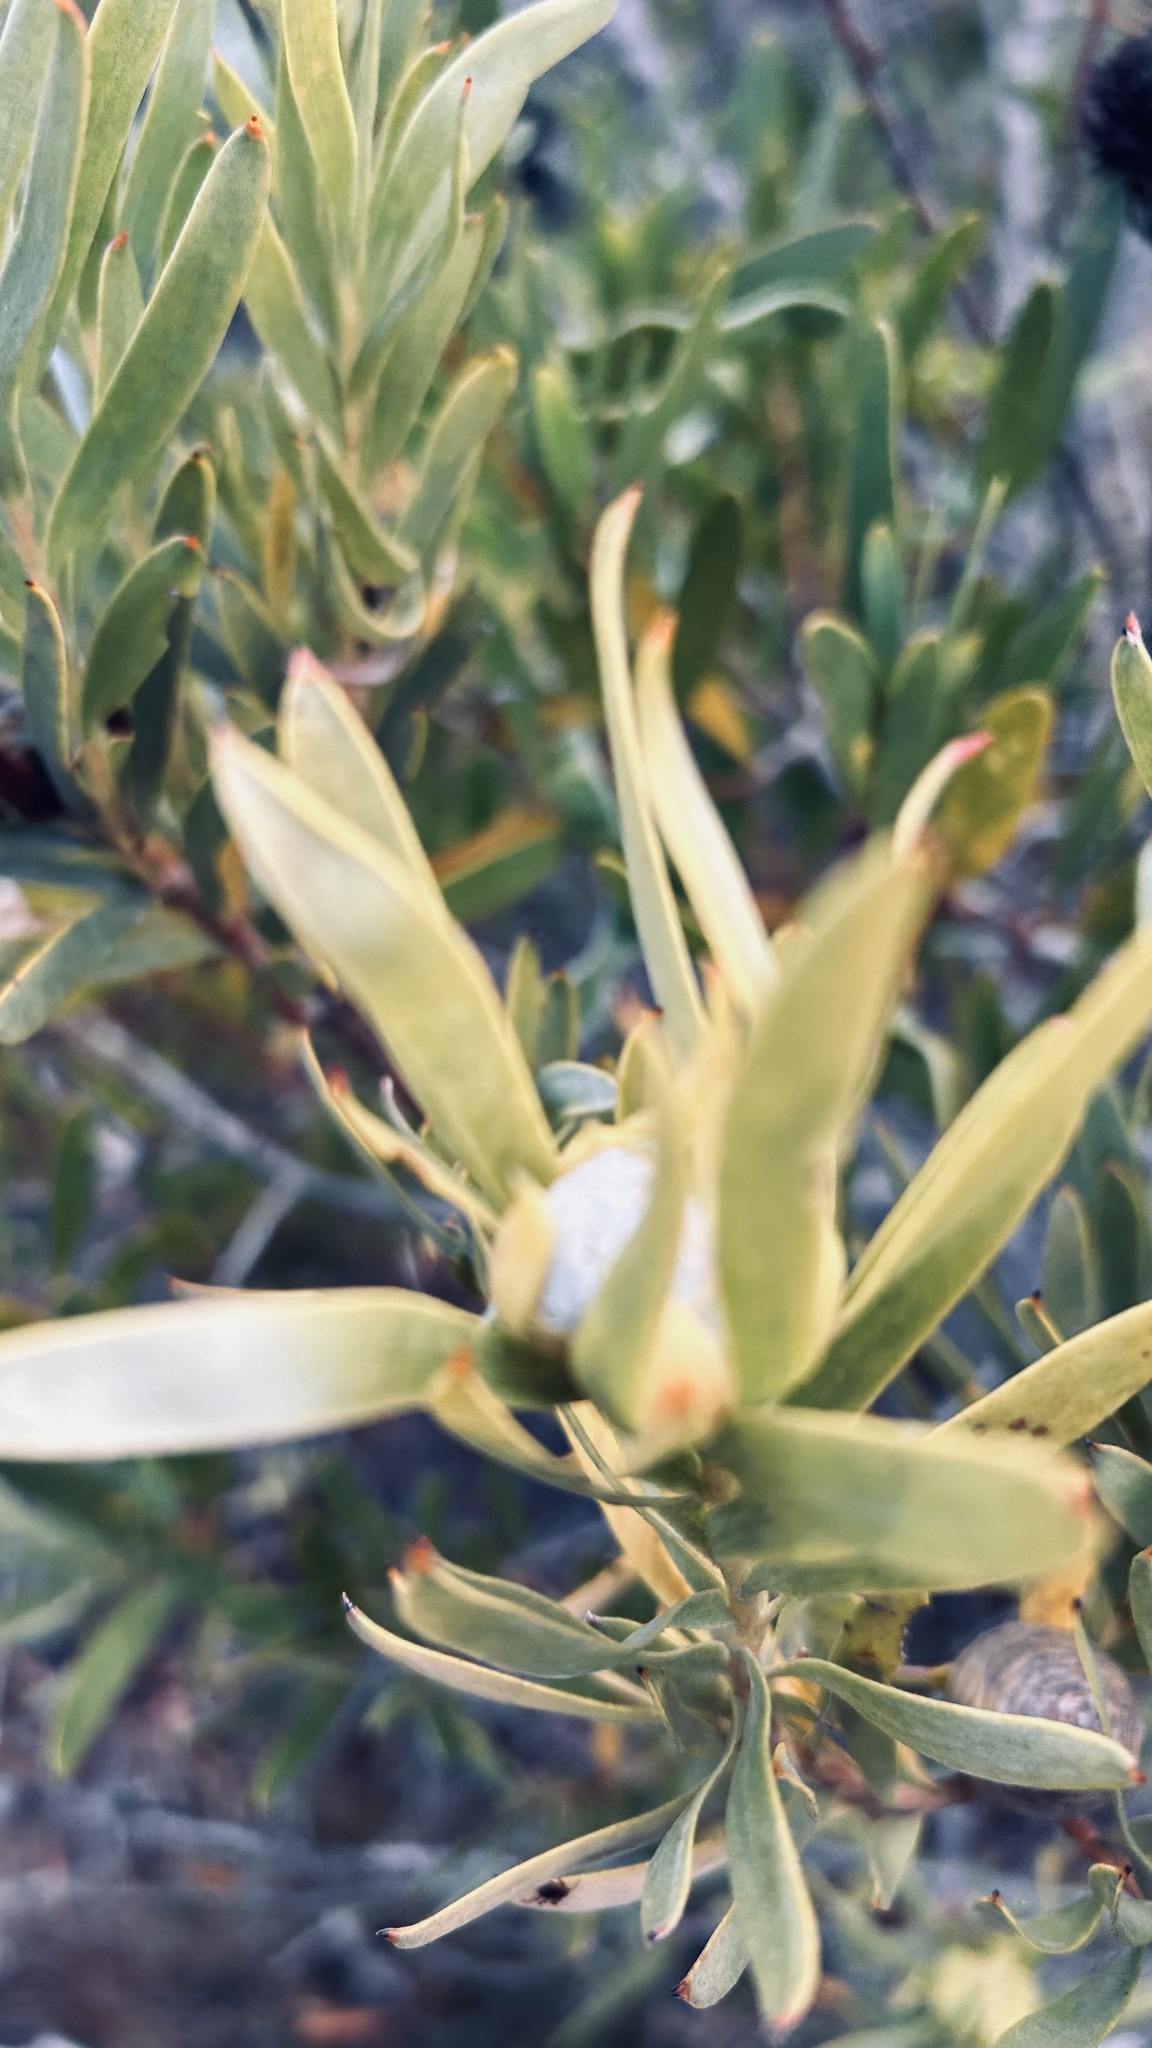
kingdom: Plantae
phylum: Tracheophyta
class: Magnoliopsida
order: Proteales
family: Proteaceae
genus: Leucadendron
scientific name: Leucadendron meridianum
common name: Limestone conebush
